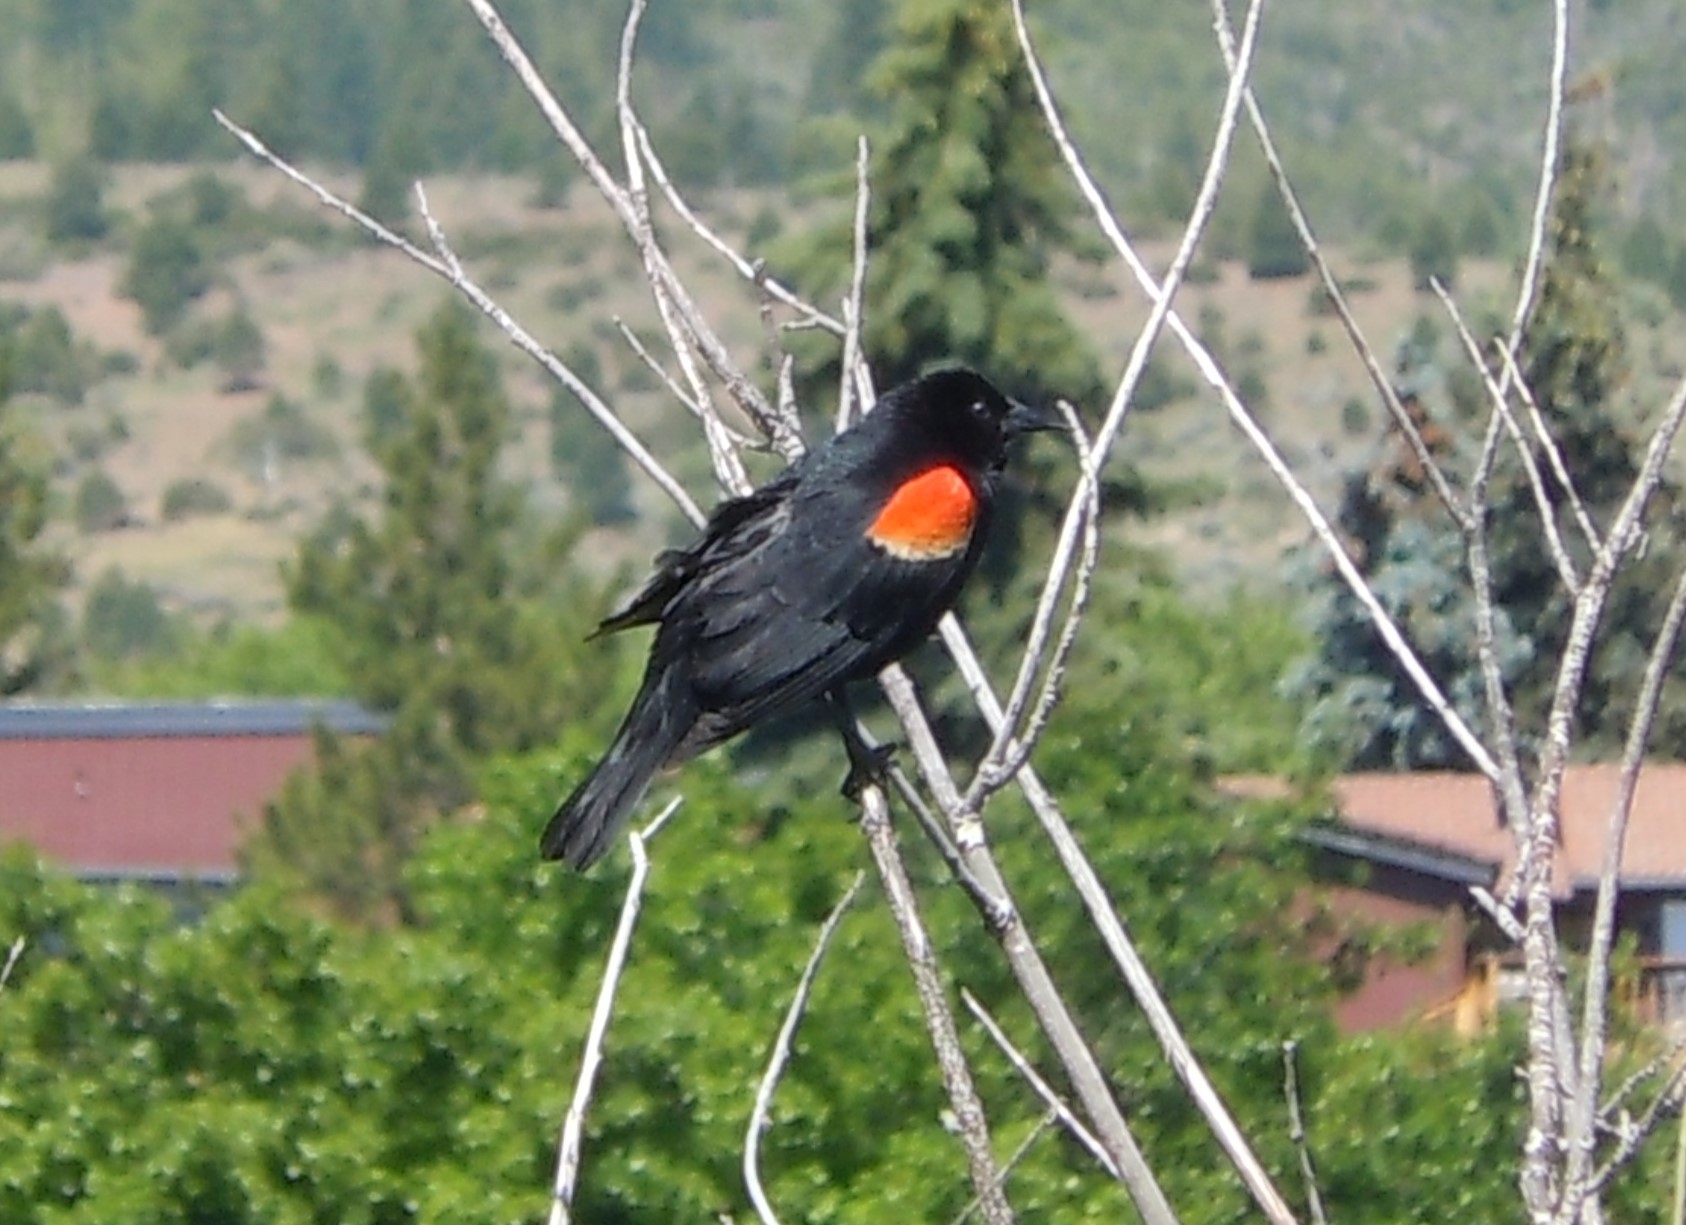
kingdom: Animalia
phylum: Chordata
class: Aves
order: Passeriformes
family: Icteridae
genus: Agelaius
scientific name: Agelaius phoeniceus
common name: Red-winged blackbird
